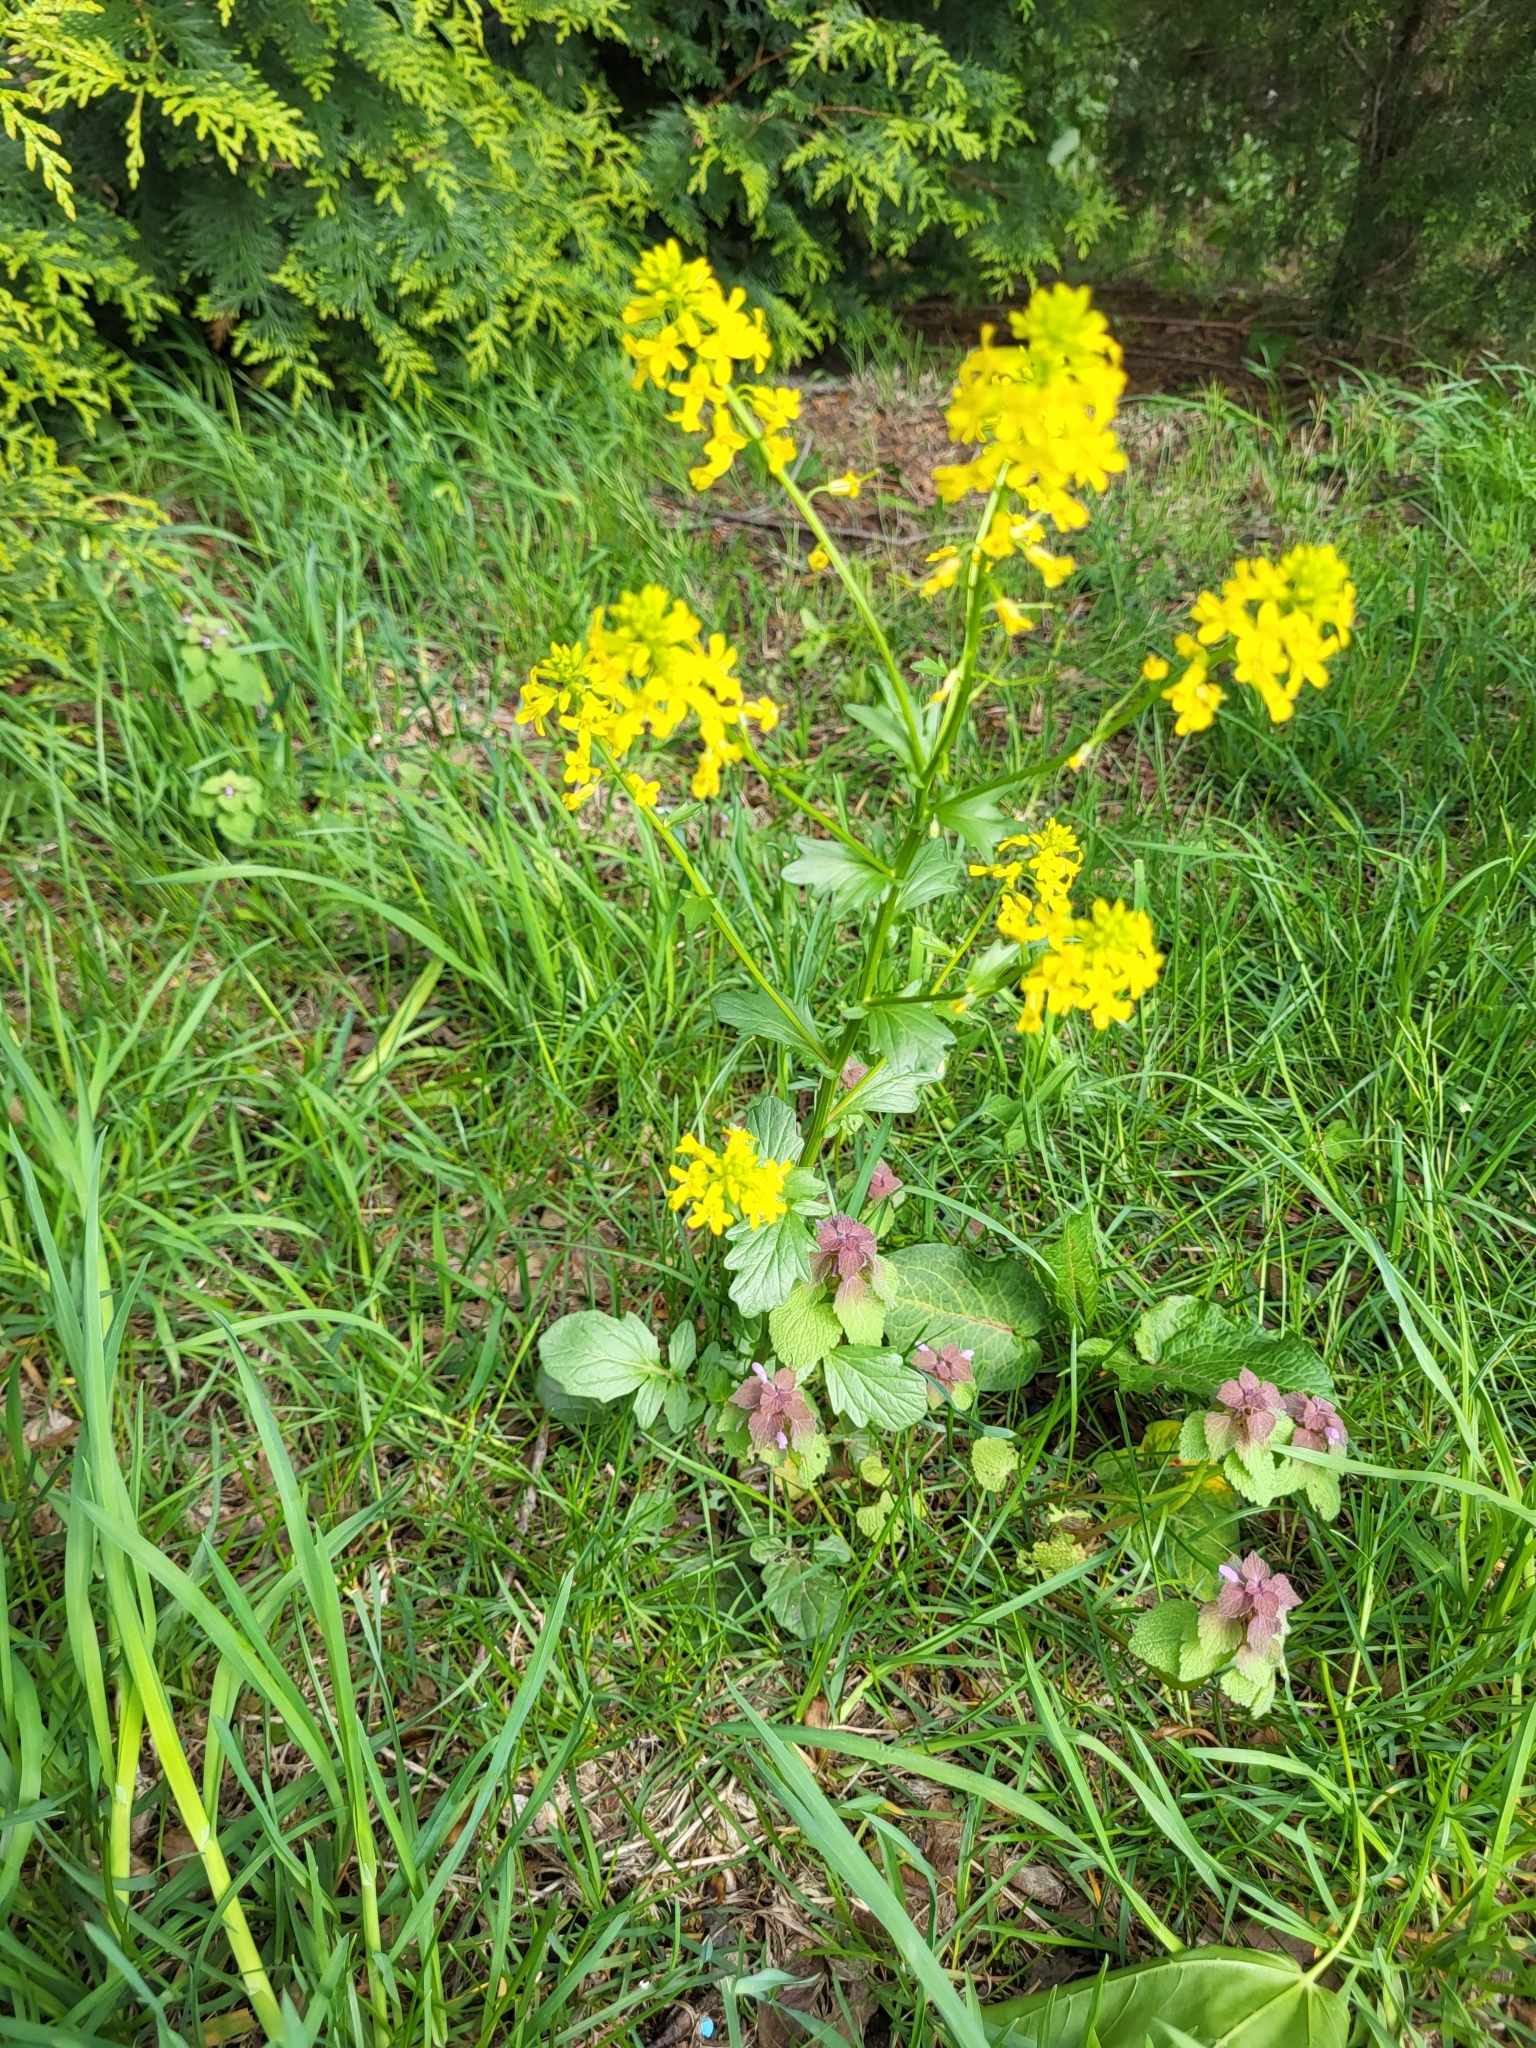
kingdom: Plantae
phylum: Tracheophyta
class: Magnoliopsida
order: Brassicales
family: Brassicaceae
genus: Barbarea
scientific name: Barbarea vulgaris
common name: Cressy-greens
